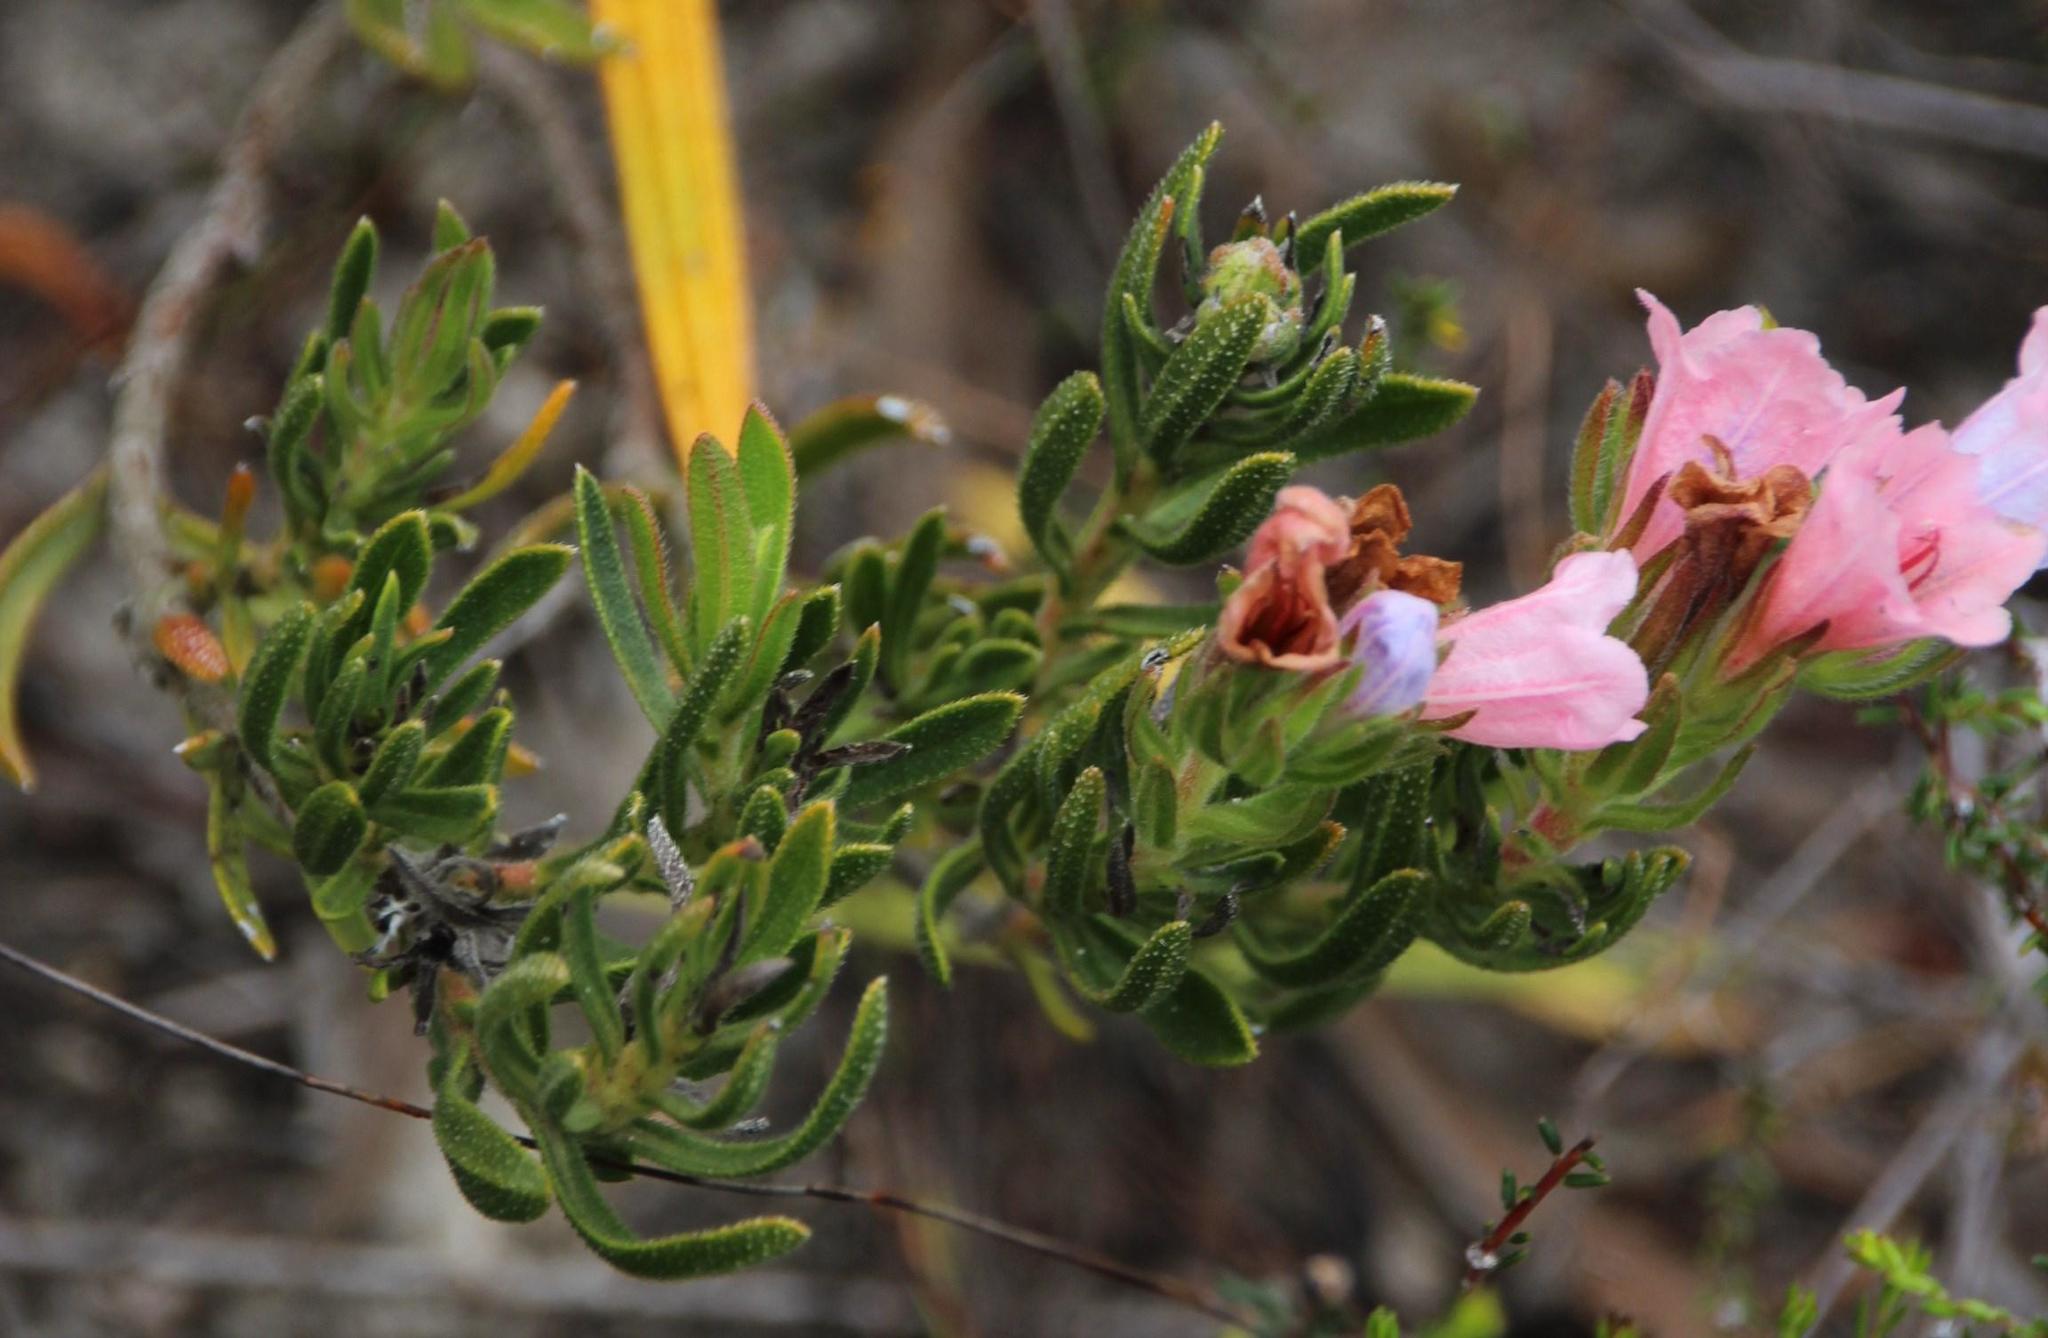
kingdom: Plantae
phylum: Tracheophyta
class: Magnoliopsida
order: Boraginales
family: Boraginaceae
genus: Lobostemon
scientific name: Lobostemon fruticosus
